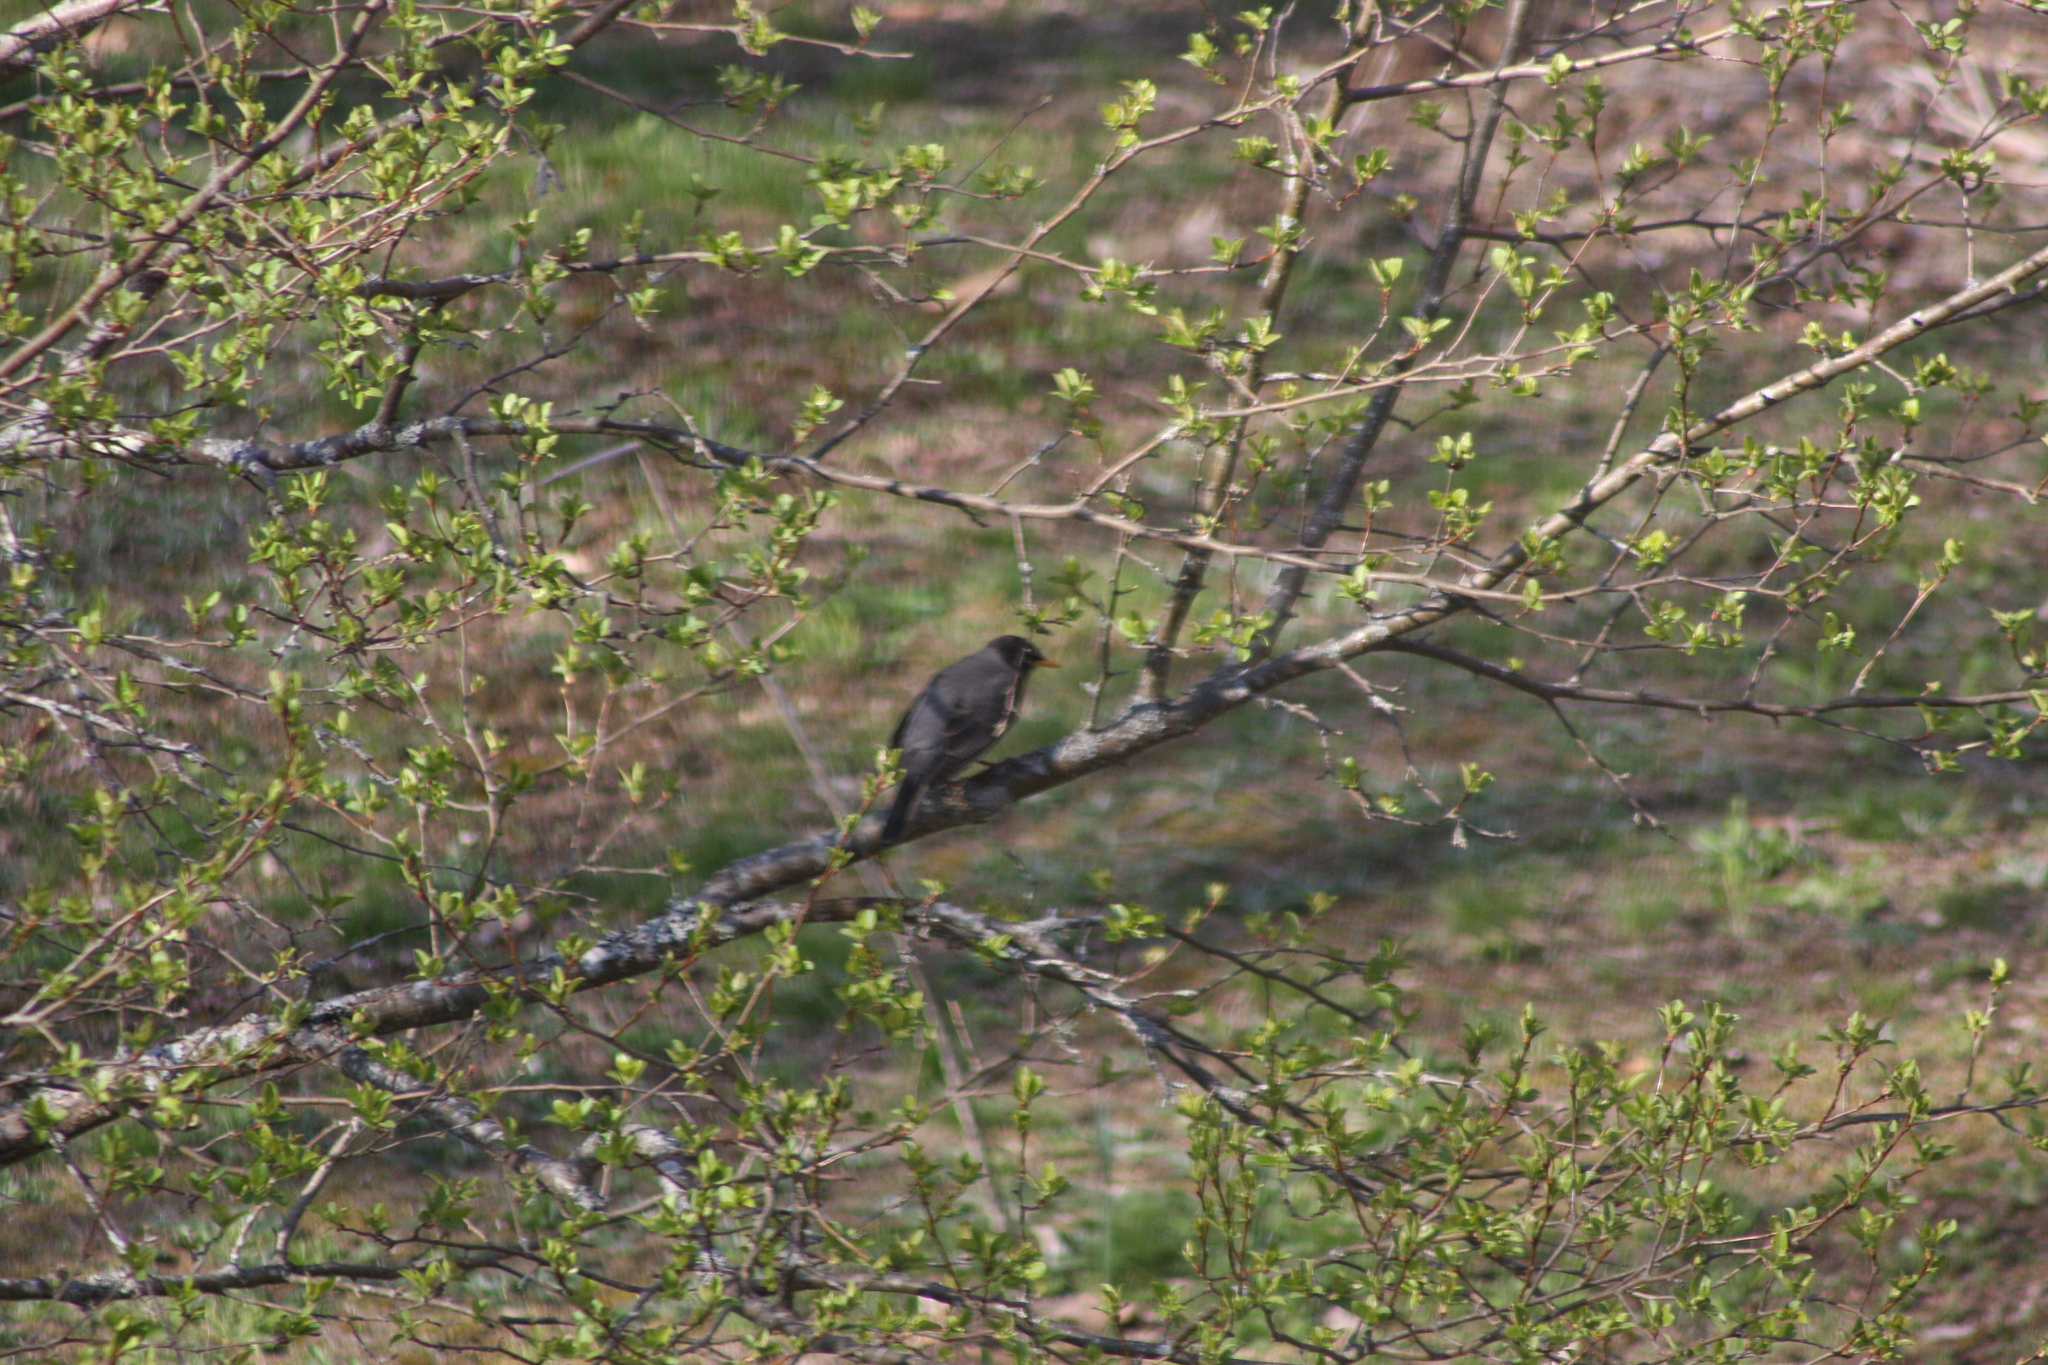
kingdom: Animalia
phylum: Chordata
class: Aves
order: Passeriformes
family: Turdidae
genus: Turdus
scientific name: Turdus migratorius
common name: American robin
